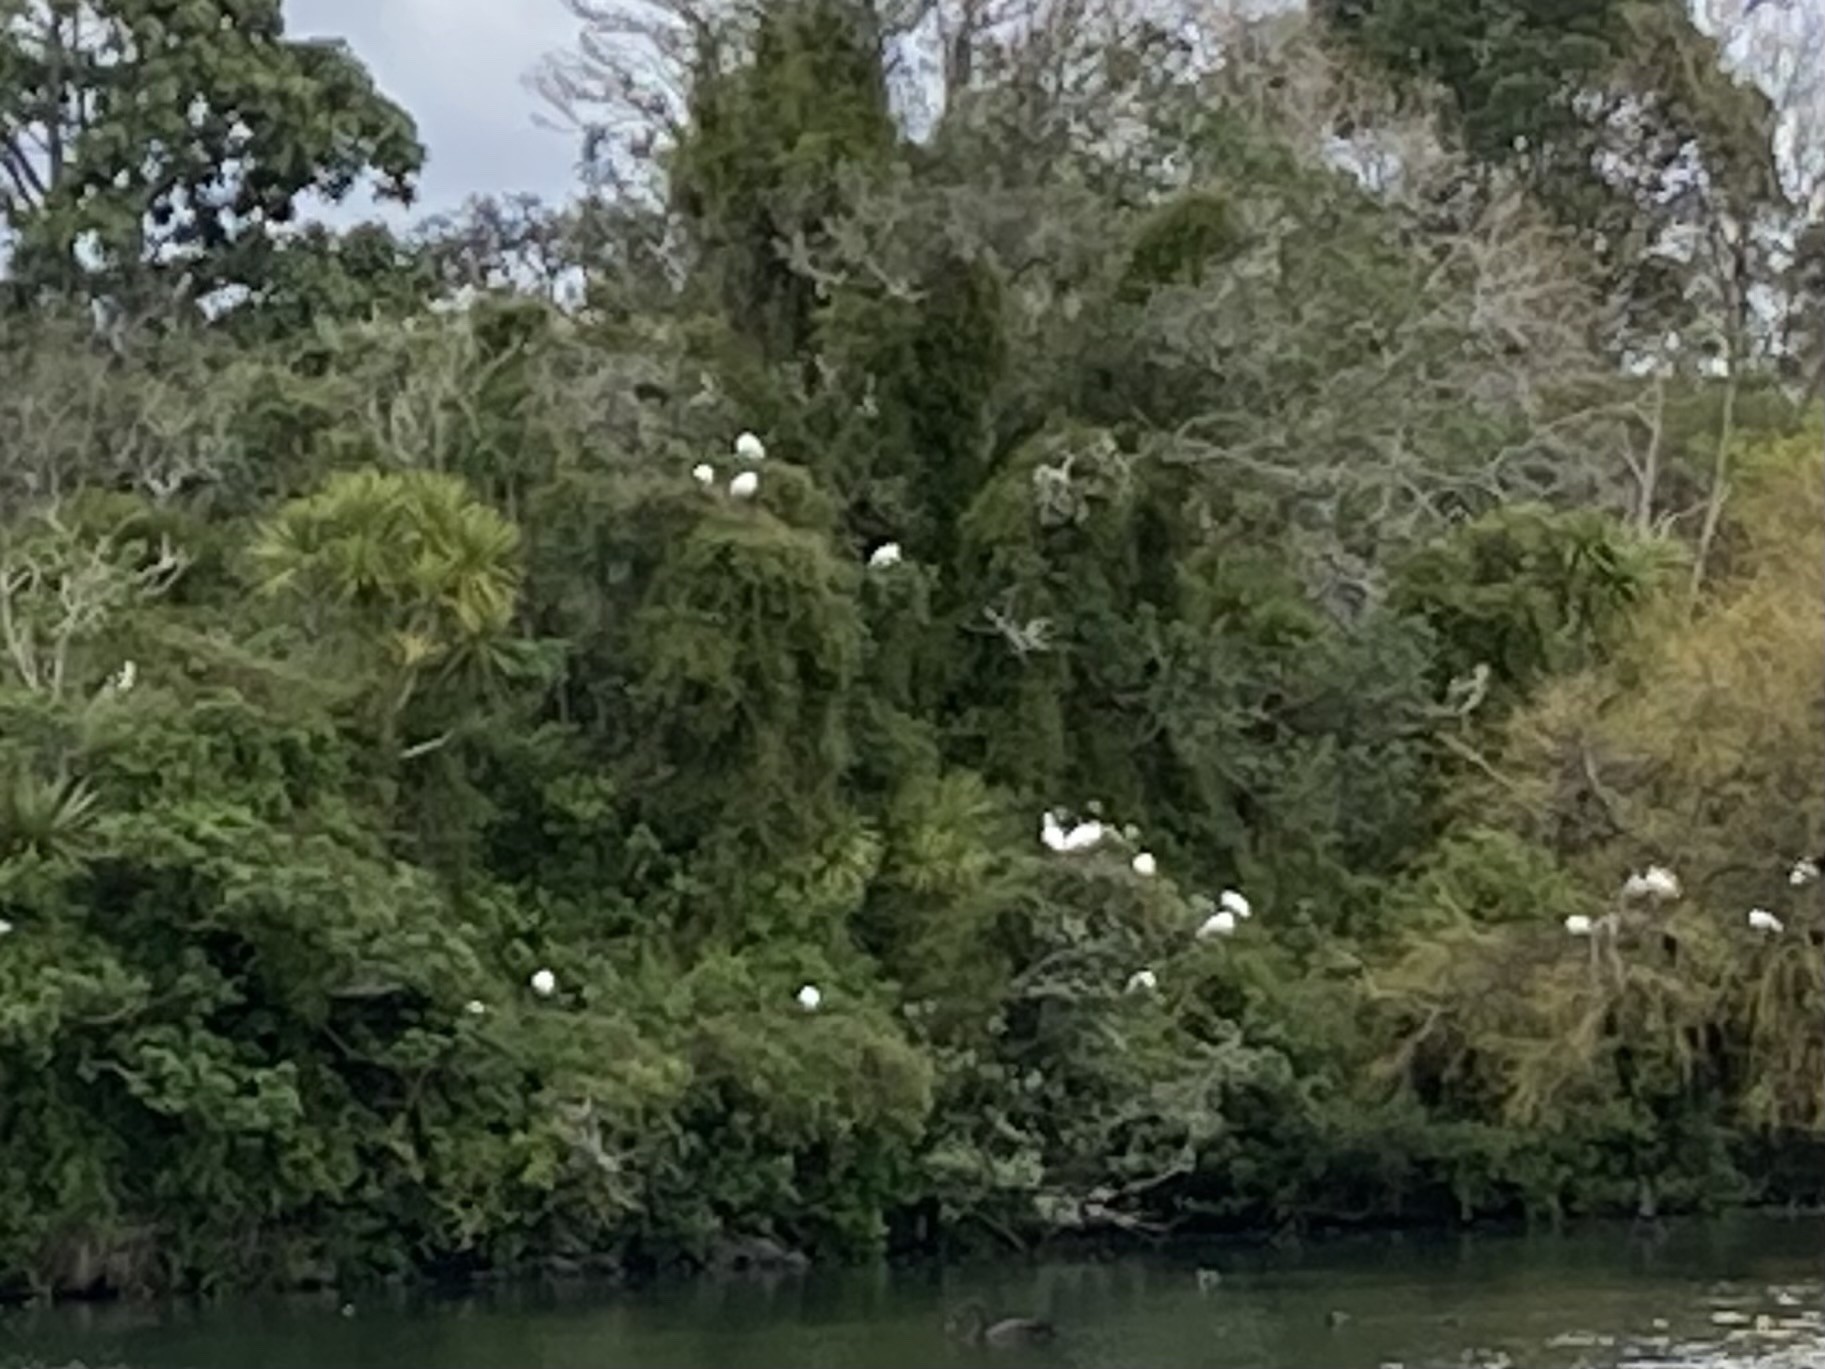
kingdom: Animalia
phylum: Chordata
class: Aves
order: Pelecaniformes
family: Threskiornithidae
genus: Platalea
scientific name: Platalea regia
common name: Royal spoonbill
